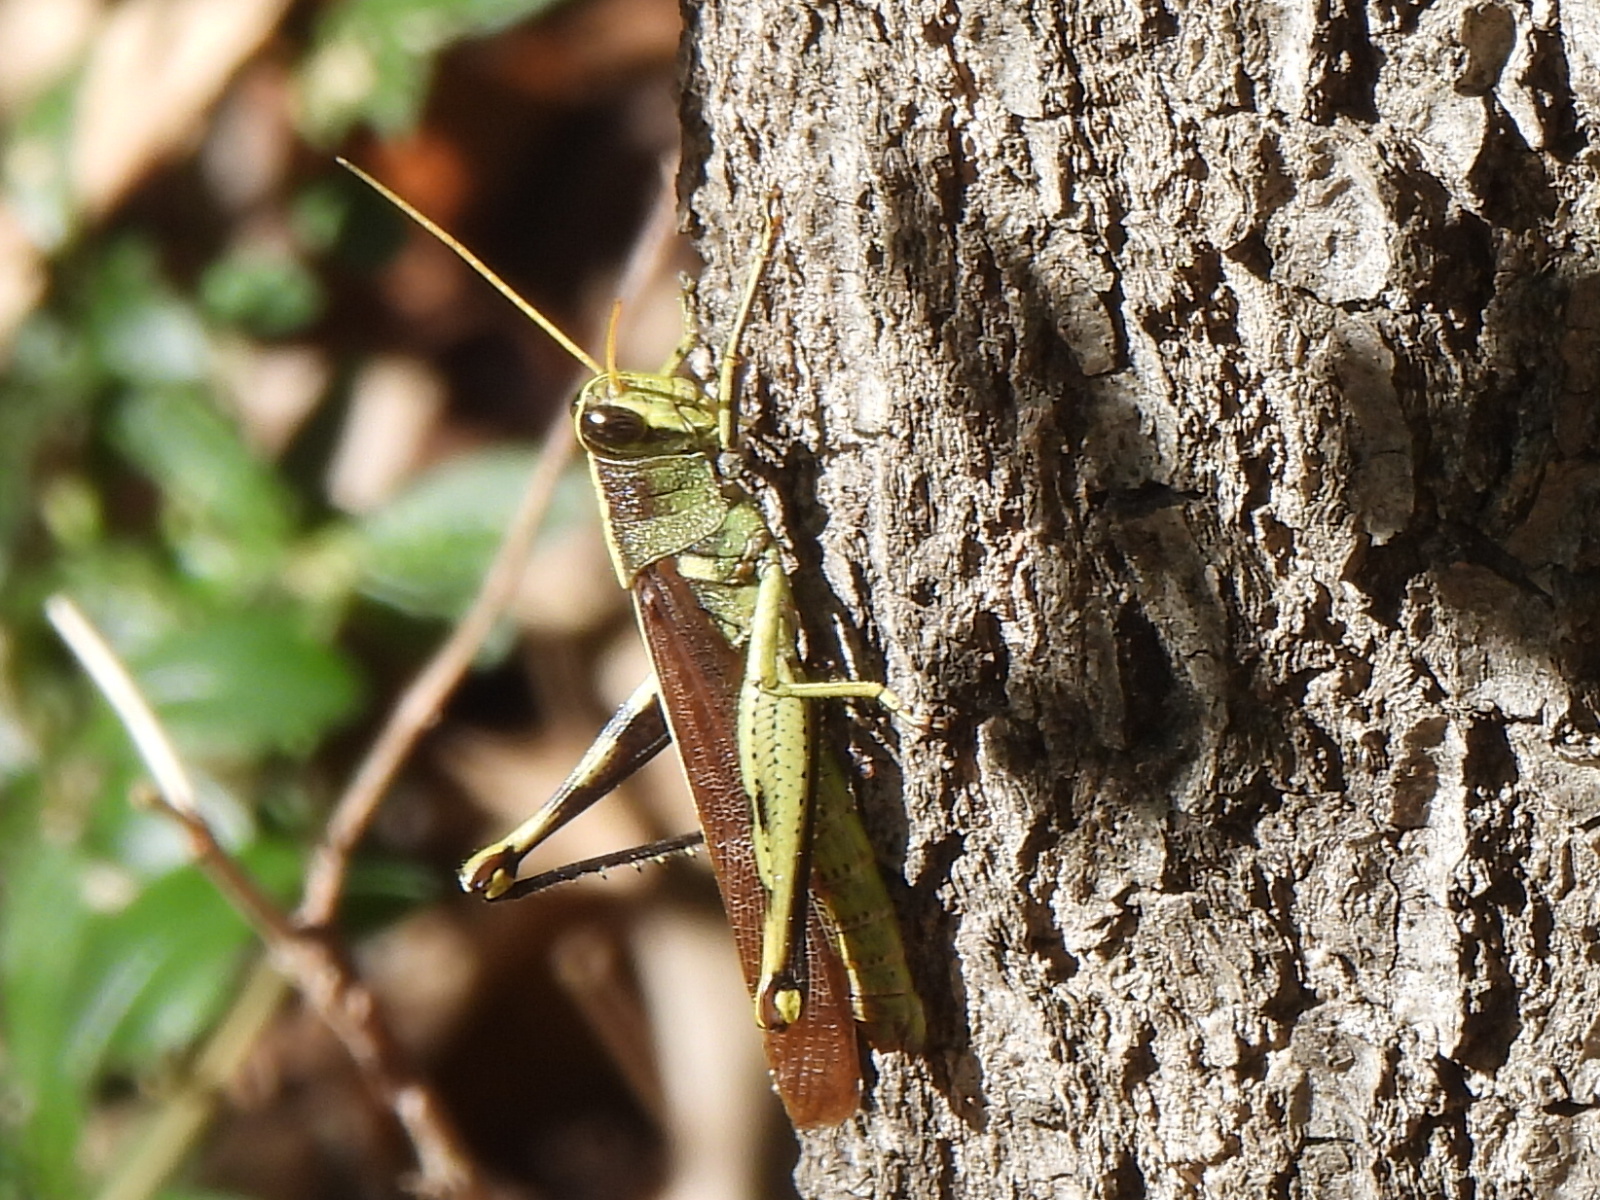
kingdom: Animalia
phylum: Arthropoda
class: Insecta
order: Orthoptera
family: Acrididae
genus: Schistocerca
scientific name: Schistocerca obscura
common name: Obscure bird grasshopper
